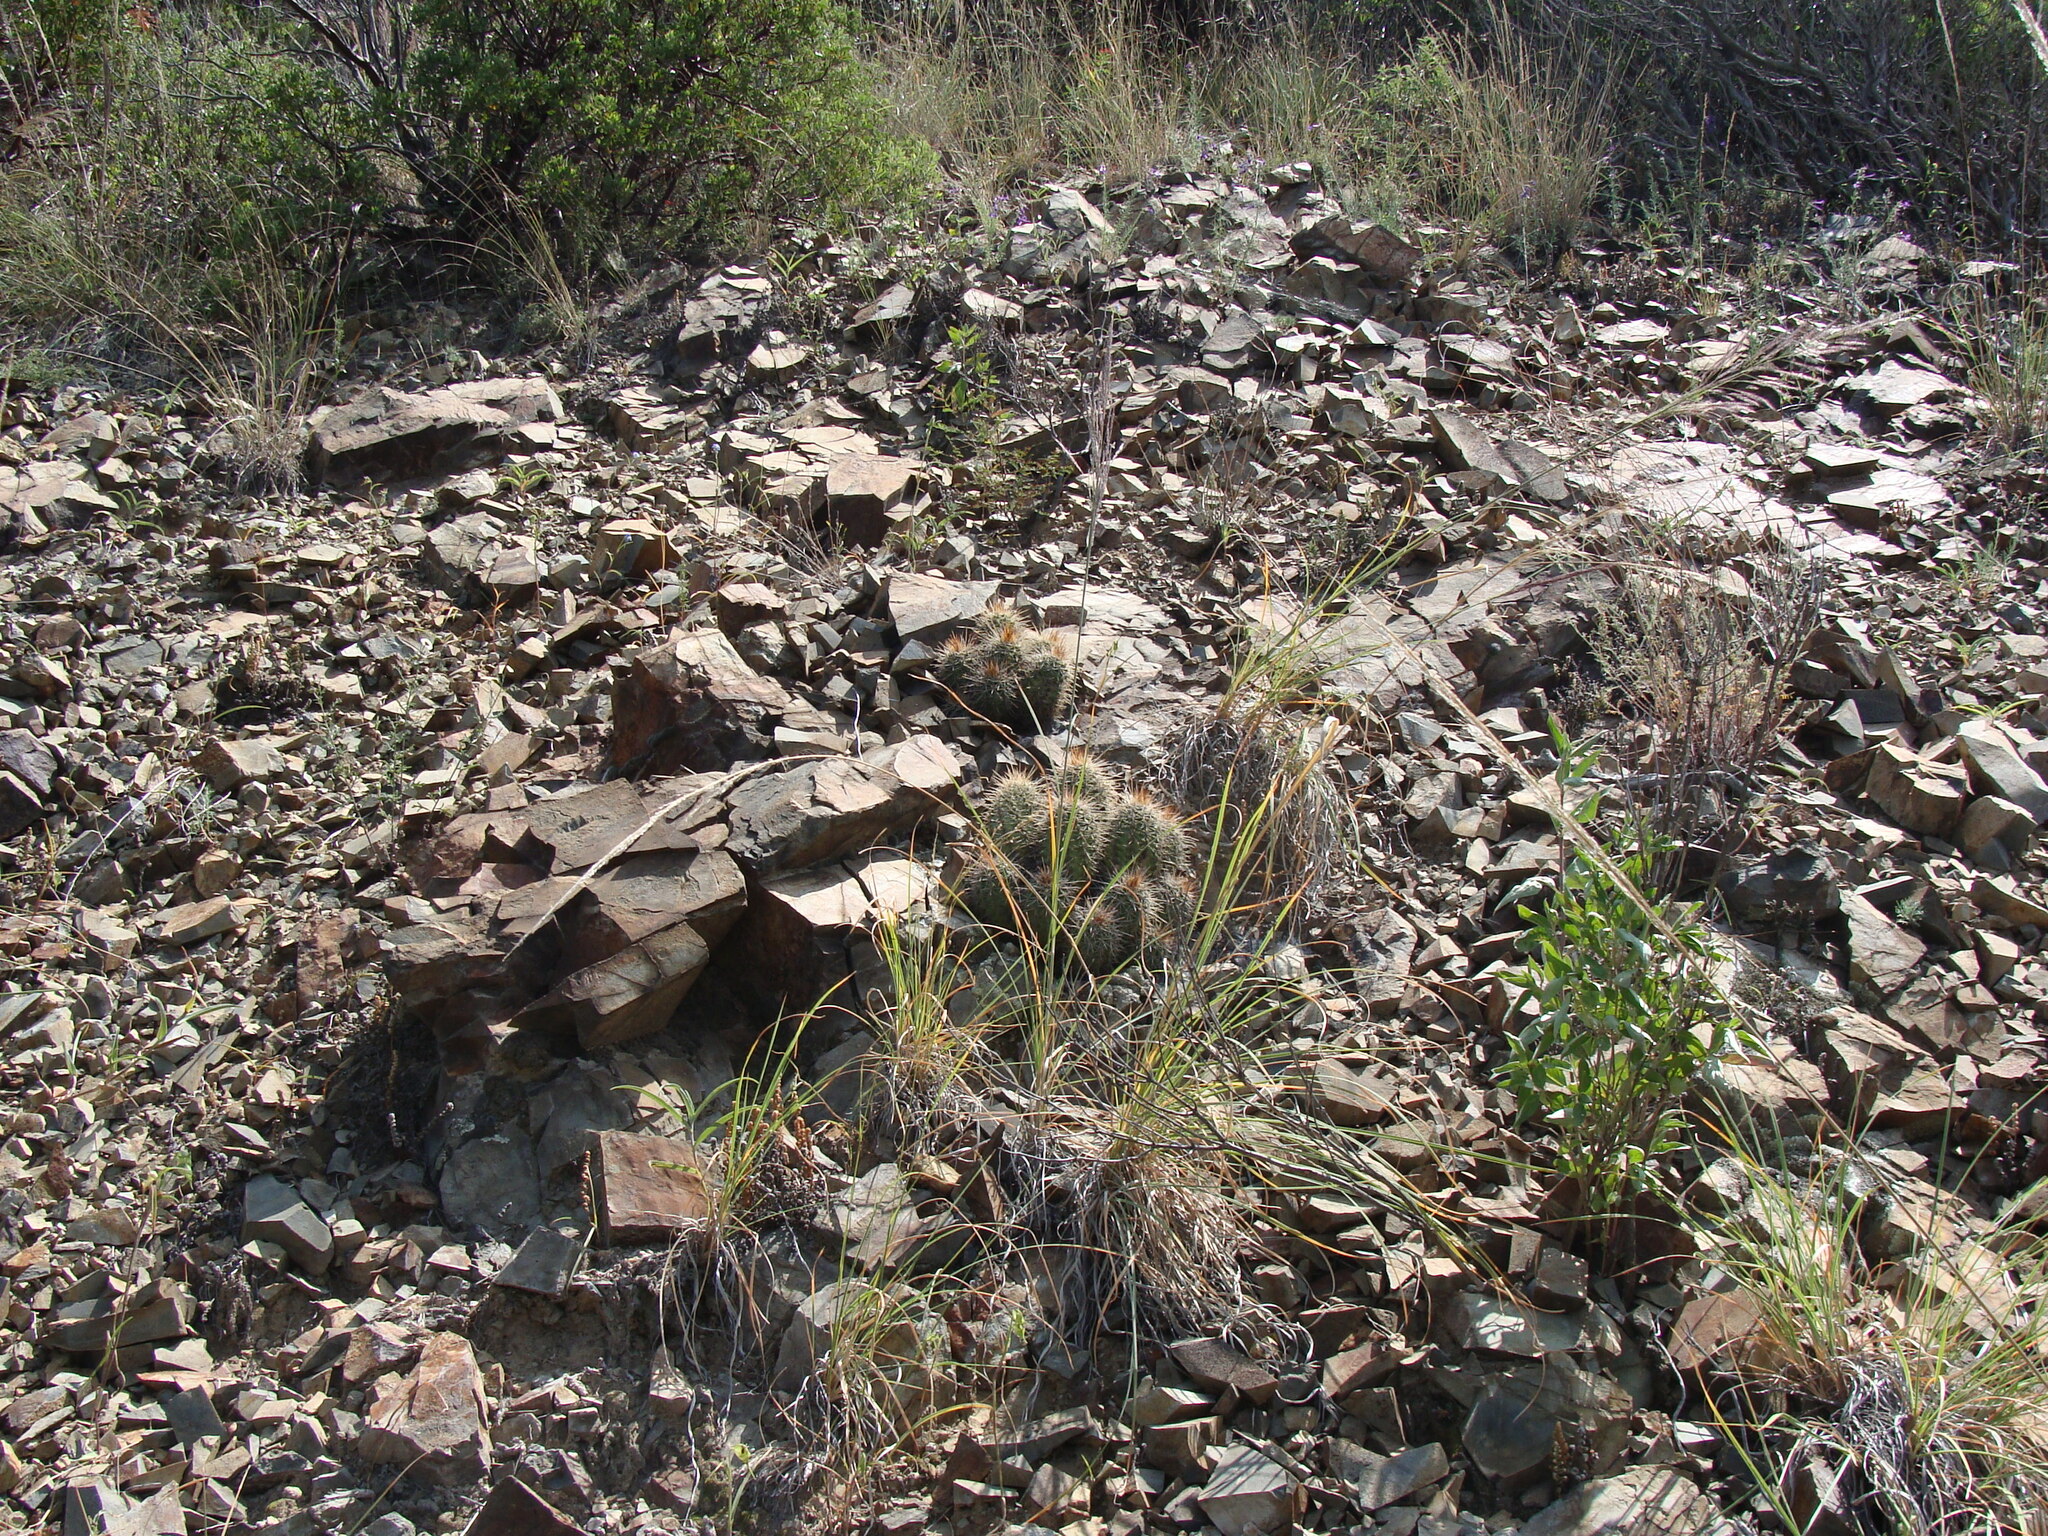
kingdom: Plantae
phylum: Tracheophyta
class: Magnoliopsida
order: Caryophyllales
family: Cactaceae
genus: Echinocereus
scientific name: Echinocereus coccineus
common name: Scarlet hedgehog cactus
